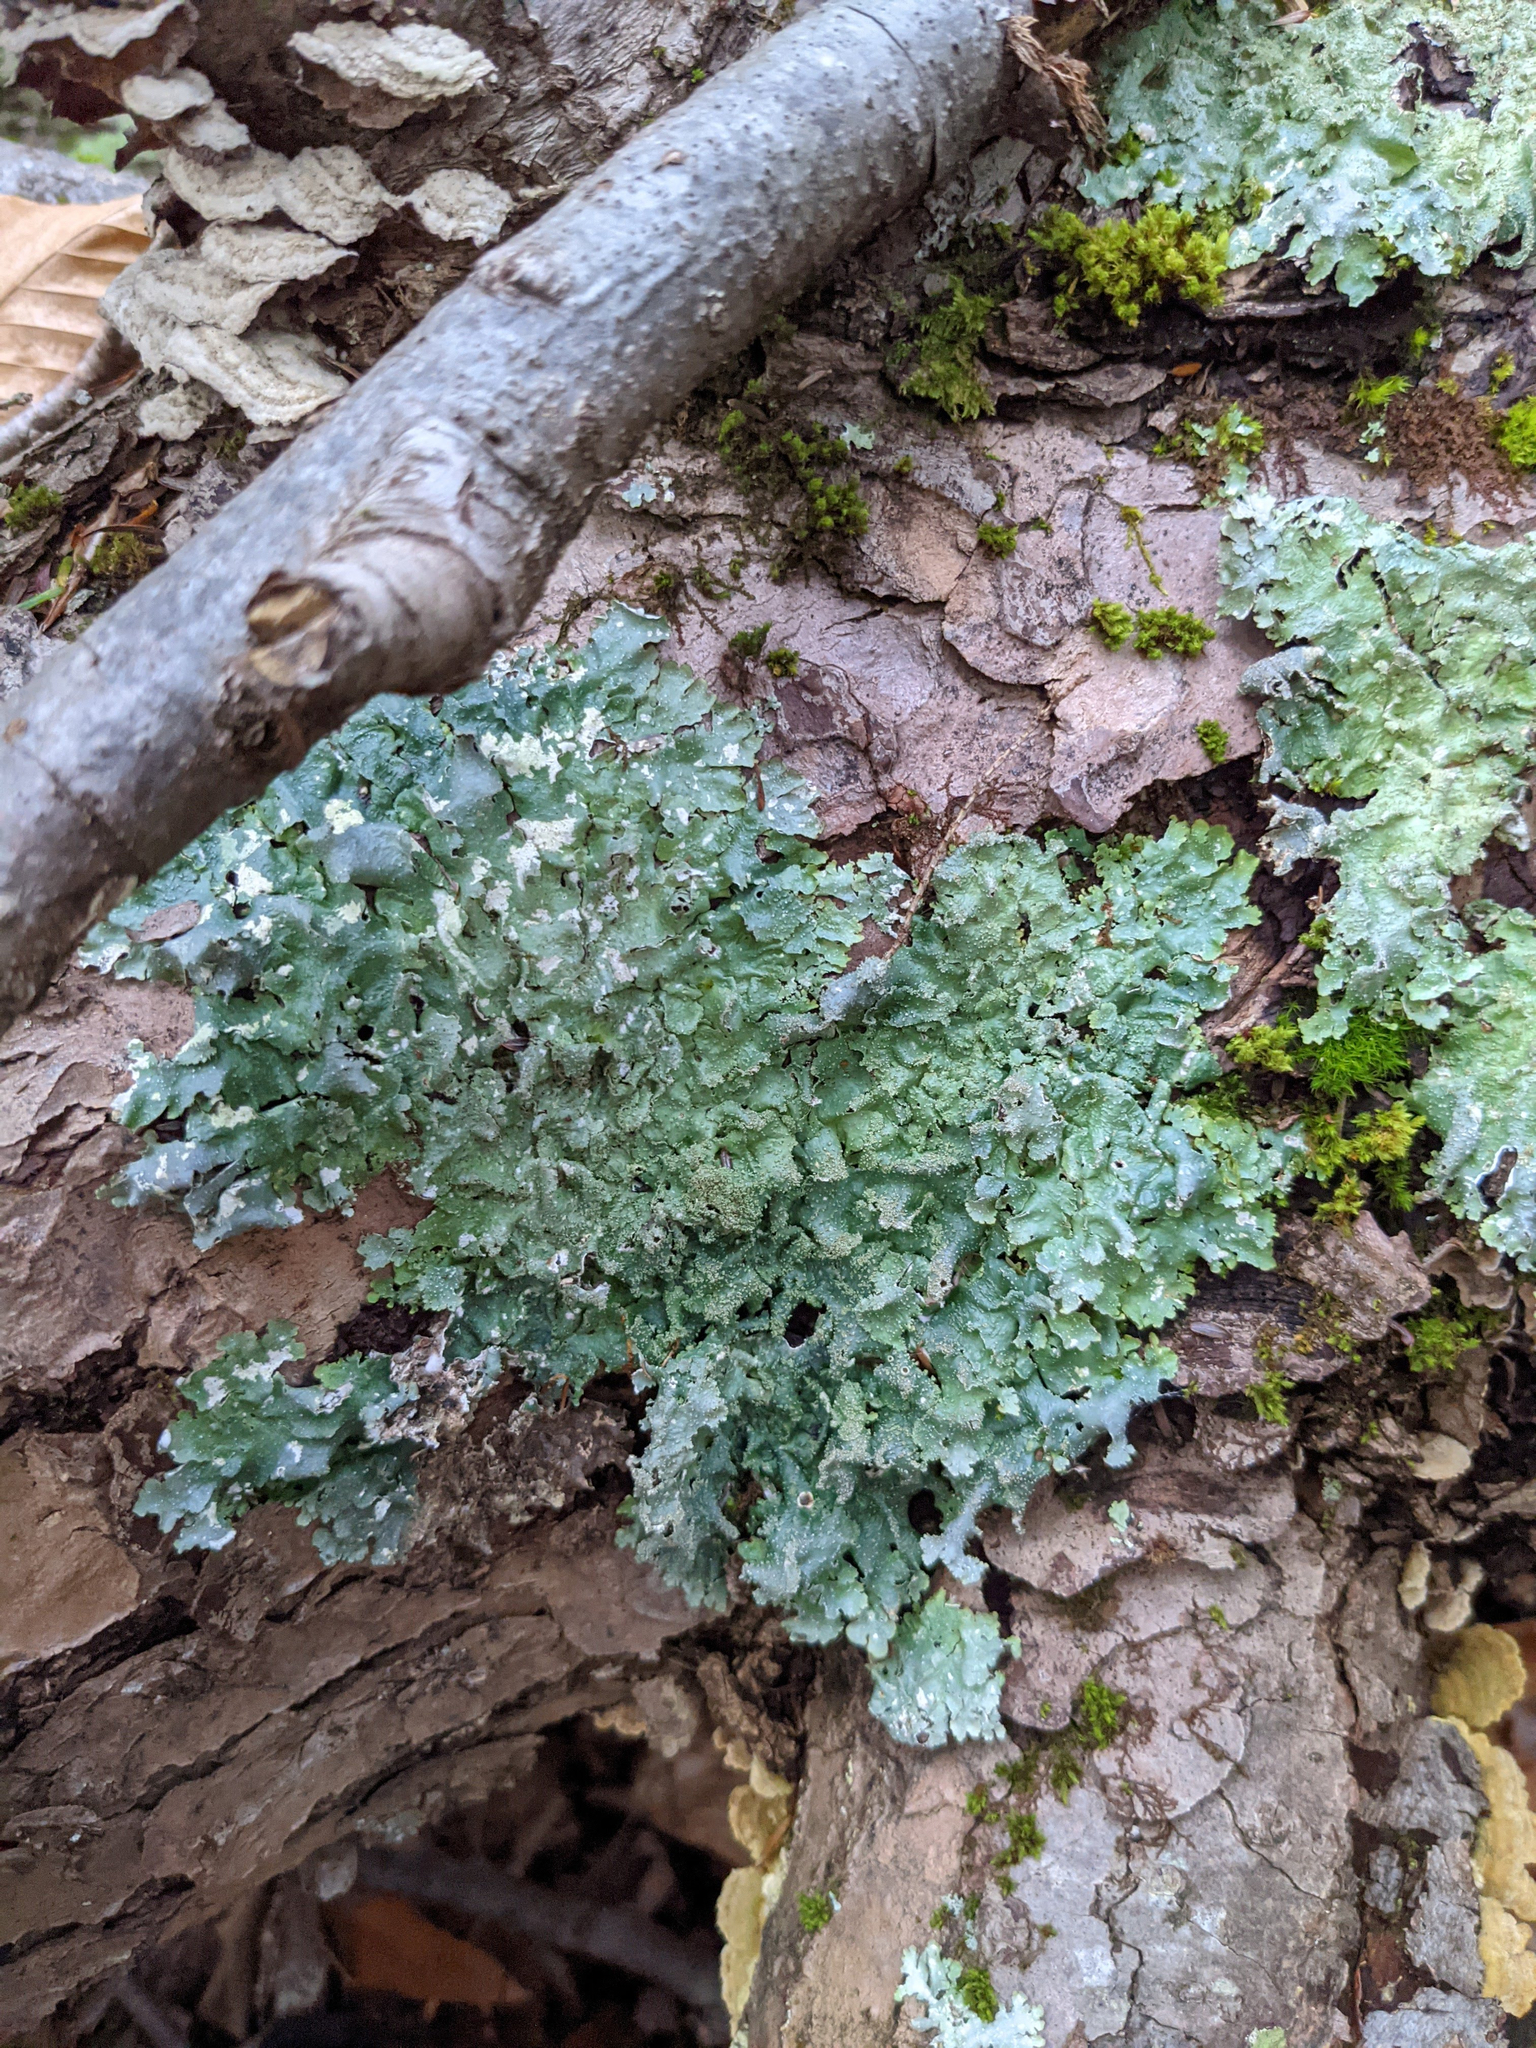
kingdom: Fungi
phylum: Ascomycota
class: Lecanoromycetes
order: Lecanorales
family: Parmeliaceae
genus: Punctelia
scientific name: Punctelia rudecta
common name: Rough speckled shield lichen
